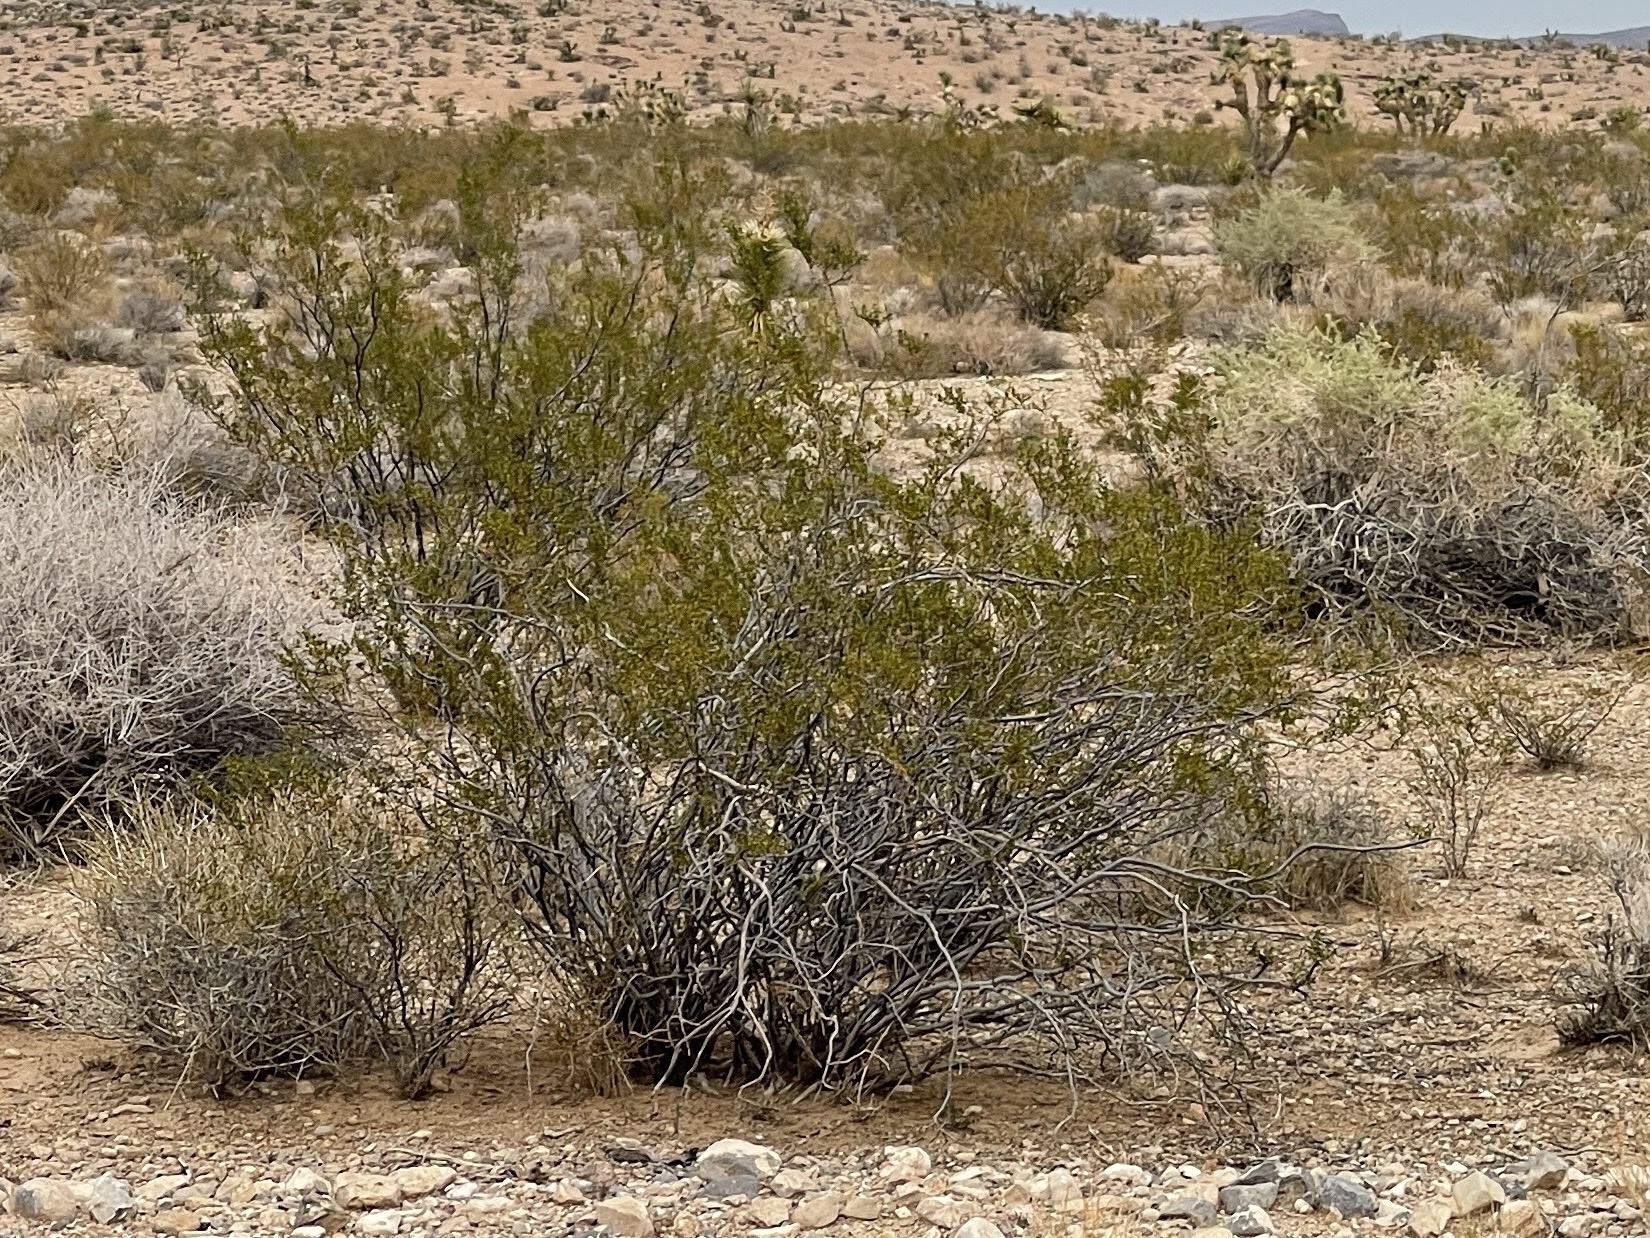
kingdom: Plantae
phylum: Tracheophyta
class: Magnoliopsida
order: Zygophyllales
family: Zygophyllaceae
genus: Larrea
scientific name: Larrea tridentata
